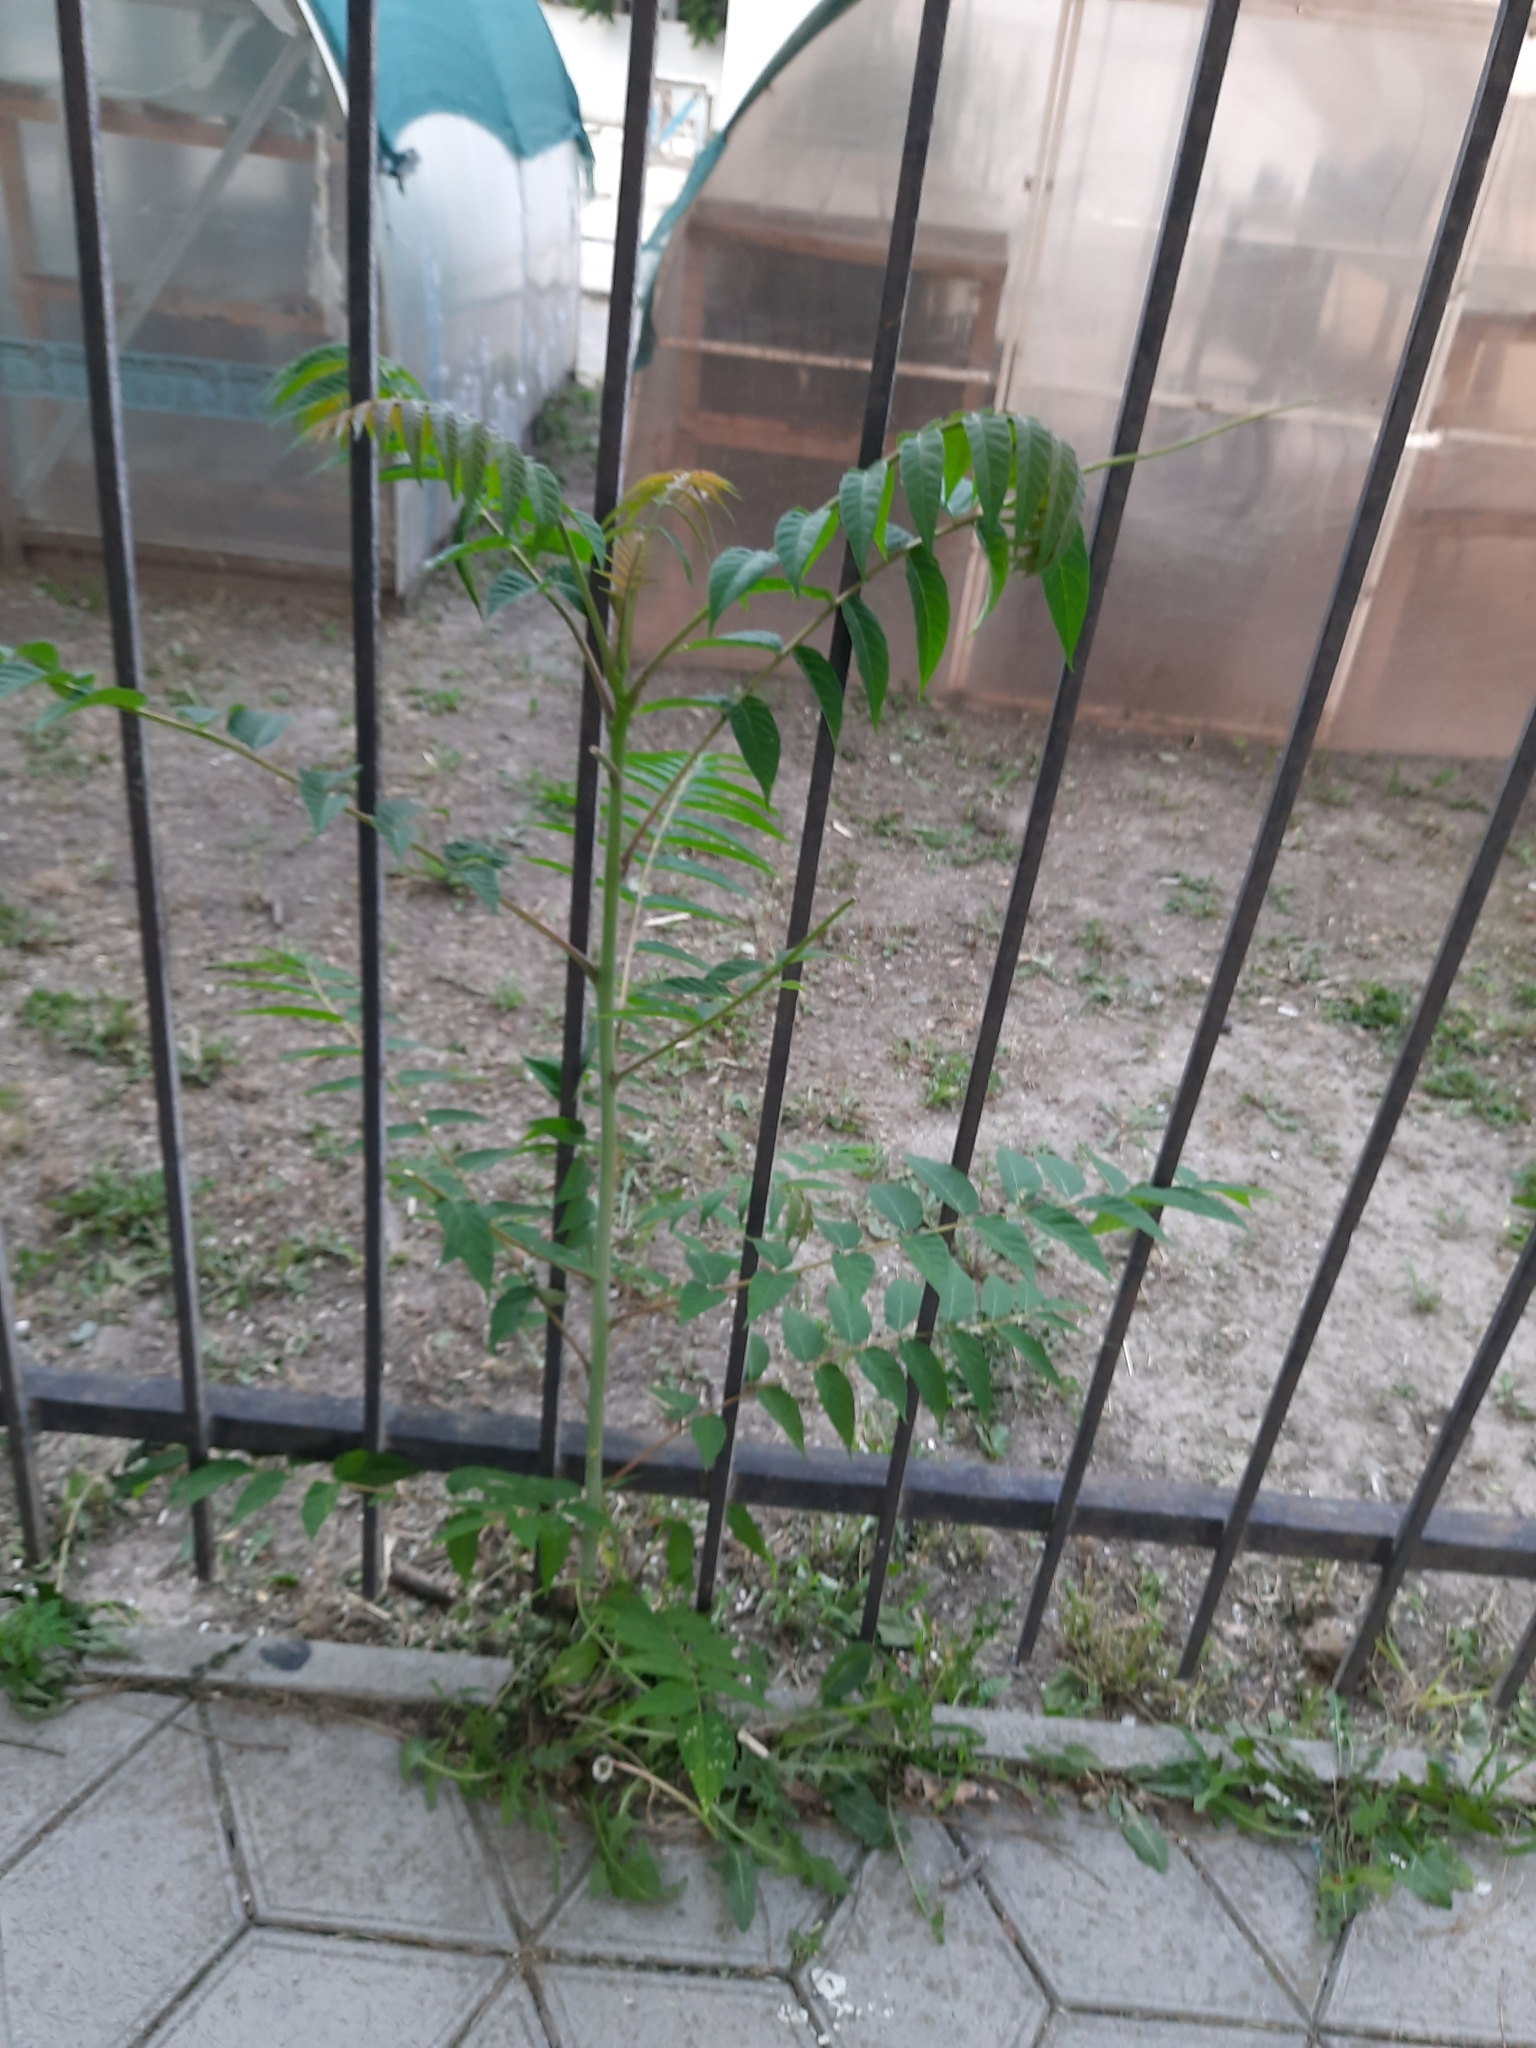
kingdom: Plantae
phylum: Tracheophyta
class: Magnoliopsida
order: Sapindales
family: Simaroubaceae
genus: Ailanthus
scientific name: Ailanthus altissima
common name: Tree-of-heaven
